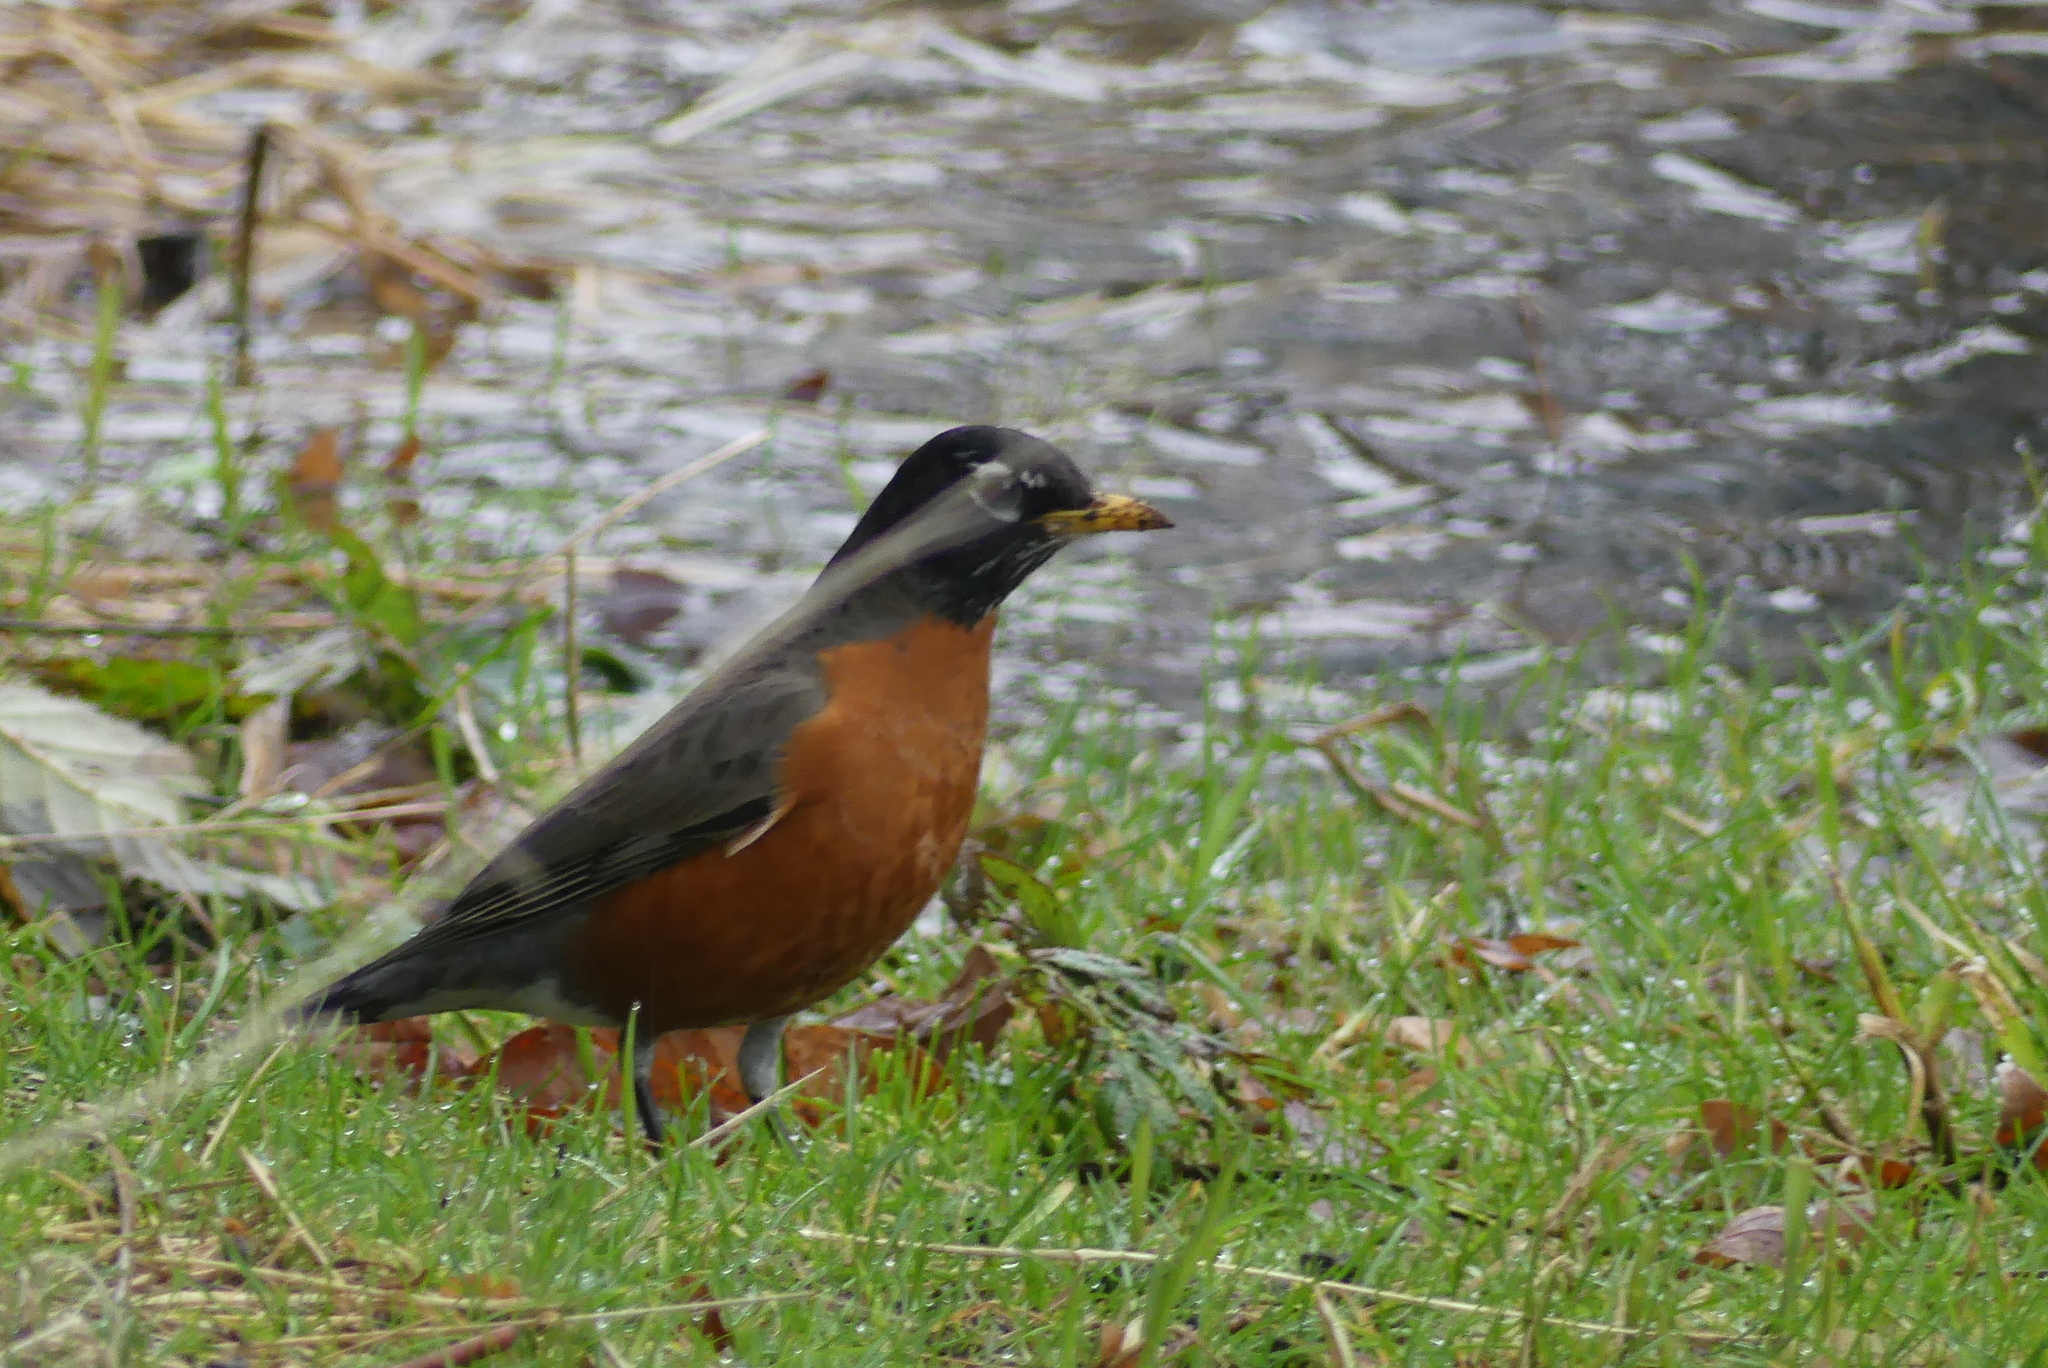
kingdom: Animalia
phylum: Chordata
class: Aves
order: Passeriformes
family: Turdidae
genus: Turdus
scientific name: Turdus migratorius
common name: American robin
